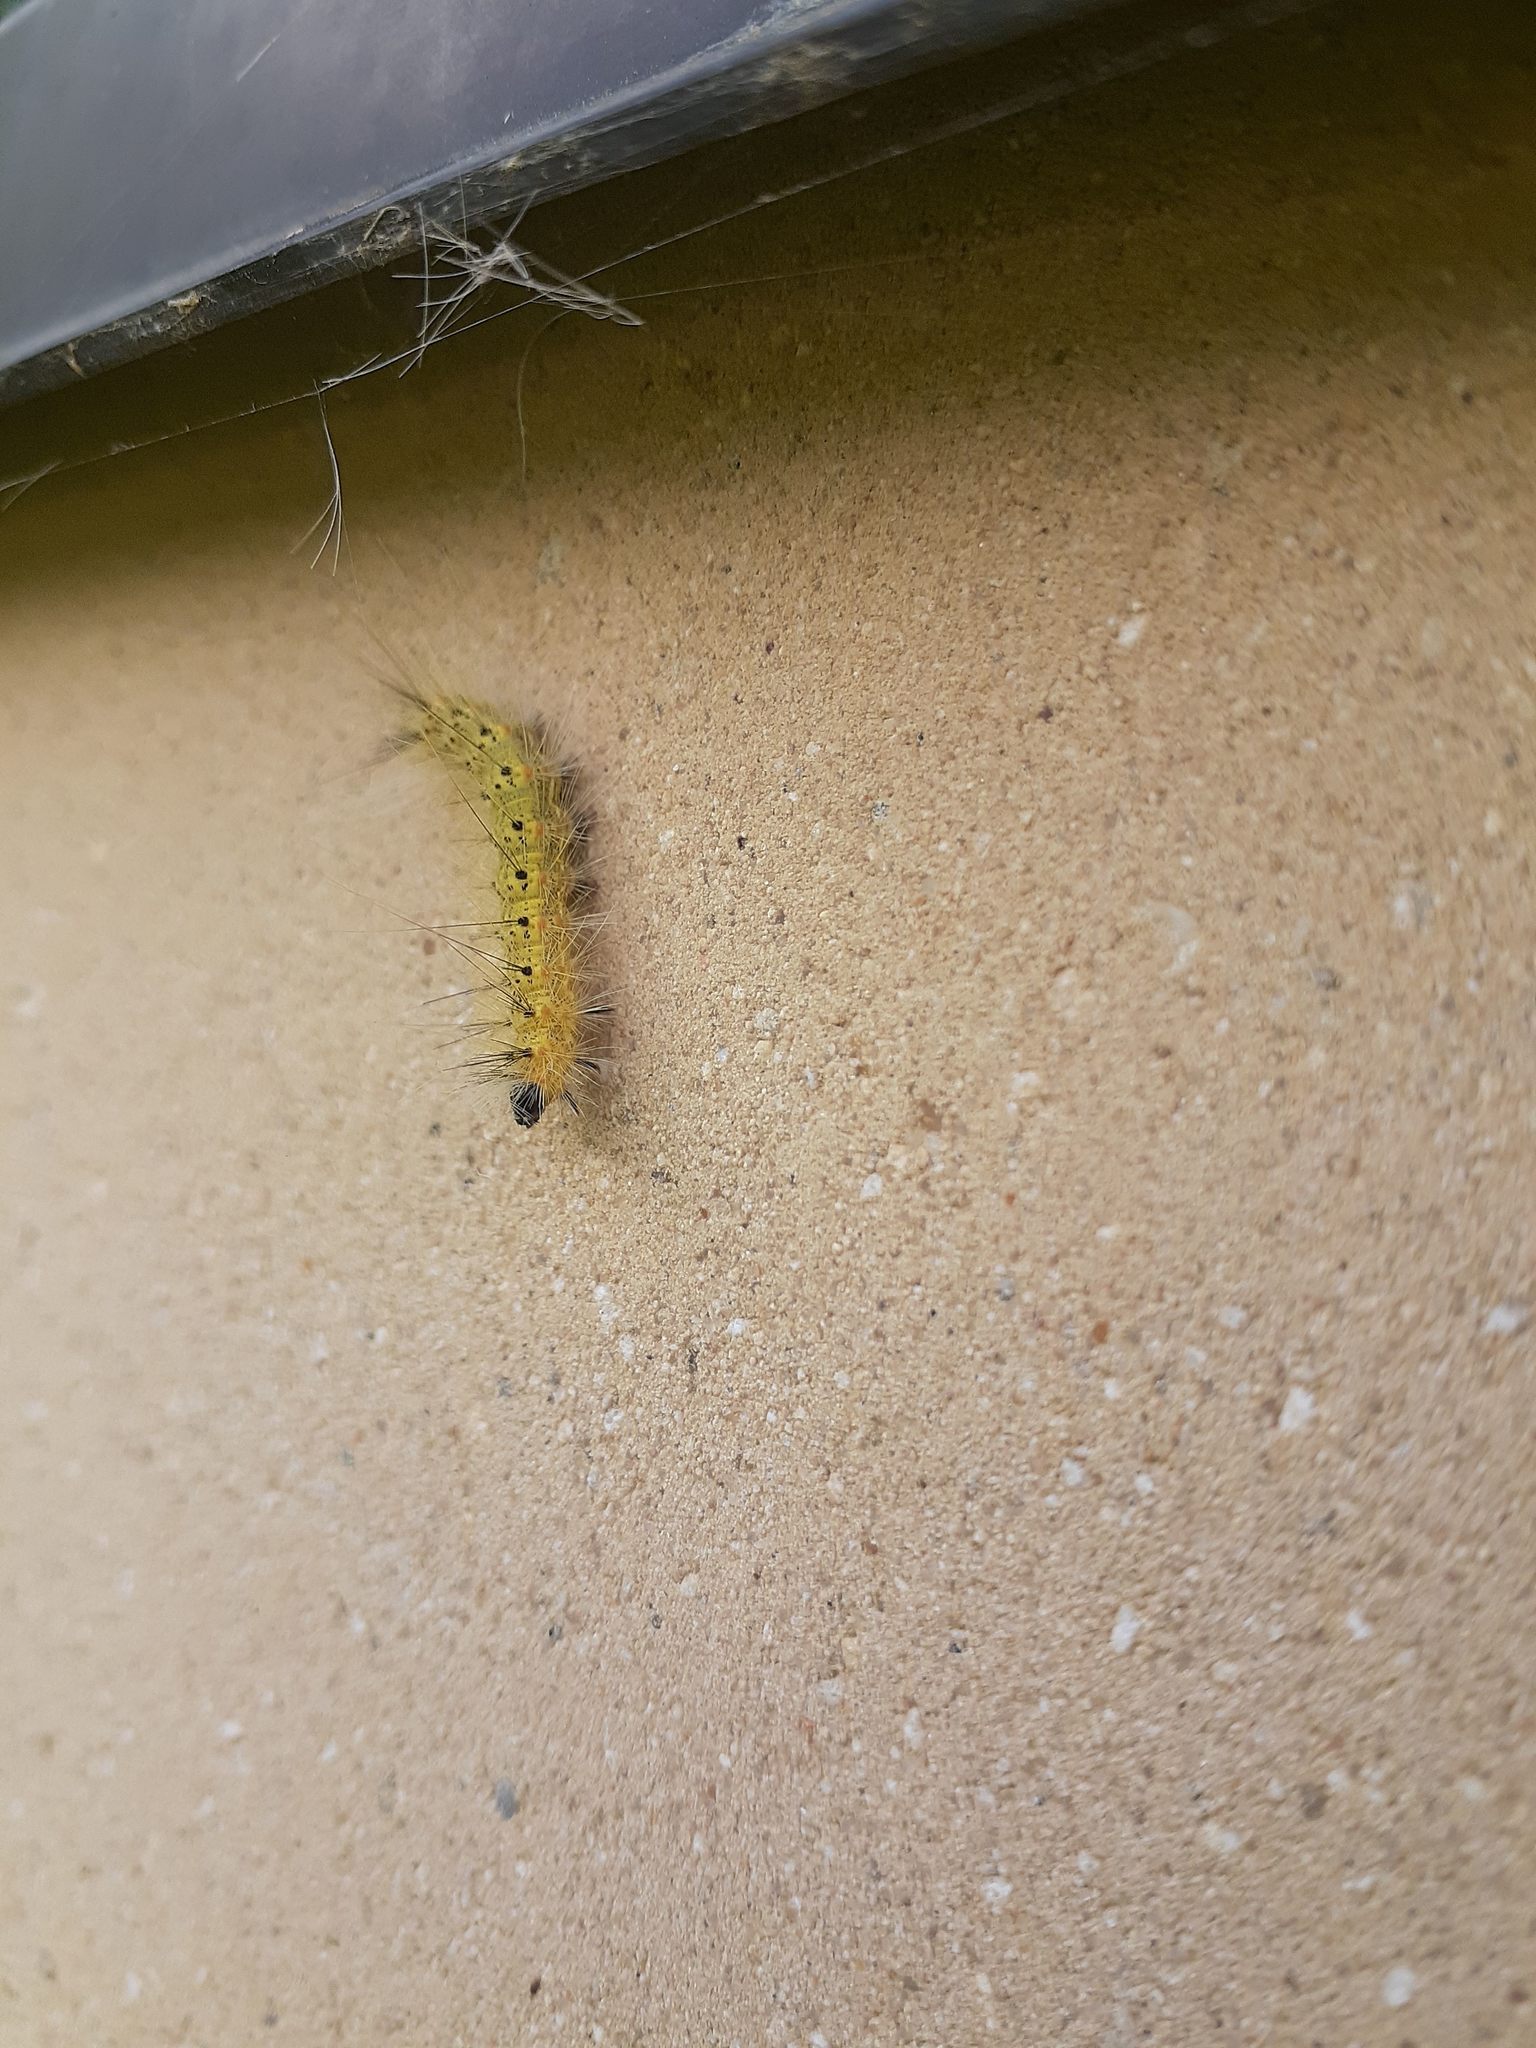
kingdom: Animalia
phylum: Arthropoda
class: Insecta
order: Lepidoptera
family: Erebidae
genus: Hyphantria
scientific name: Hyphantria cunea
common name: American white moth
